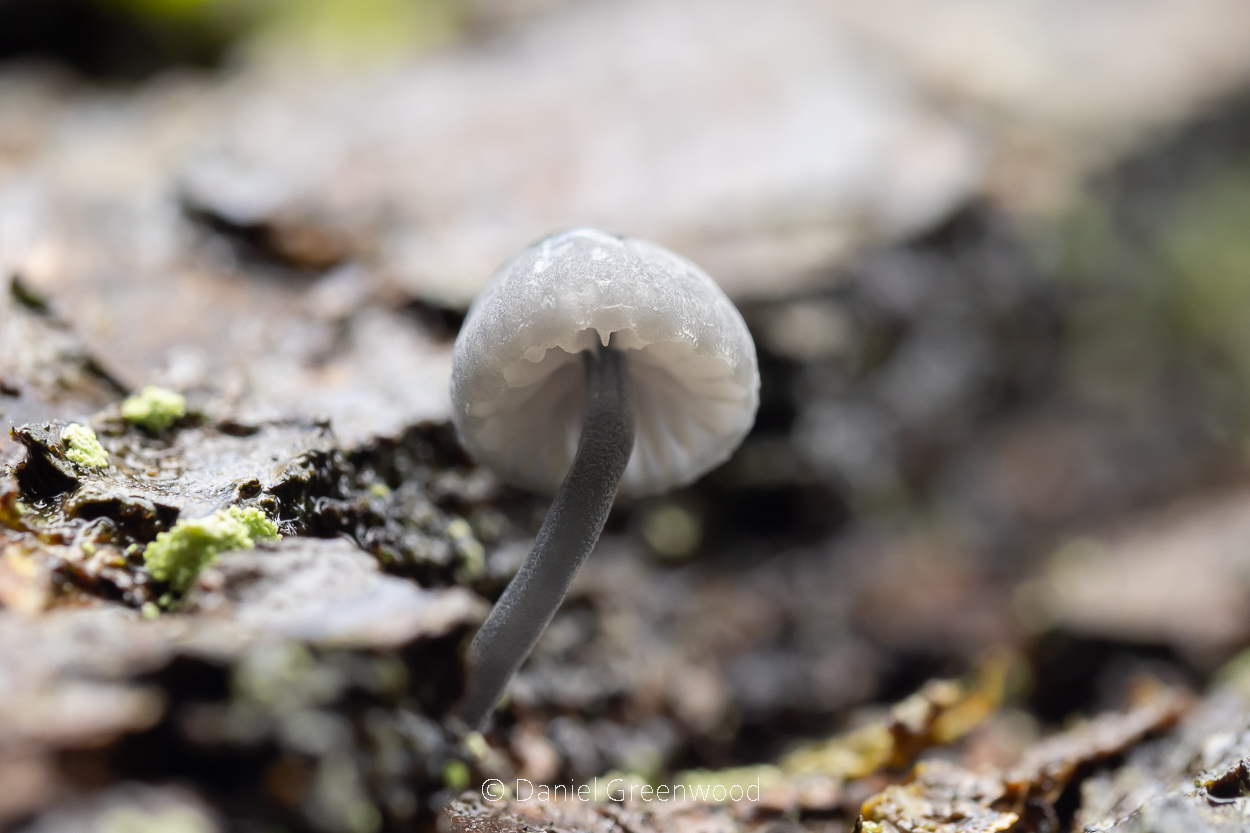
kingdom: Fungi
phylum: Basidiomycota
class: Agaricomycetes
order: Agaricales
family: Mycenaceae
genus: Mycena
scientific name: Mycena pseudocorticola
